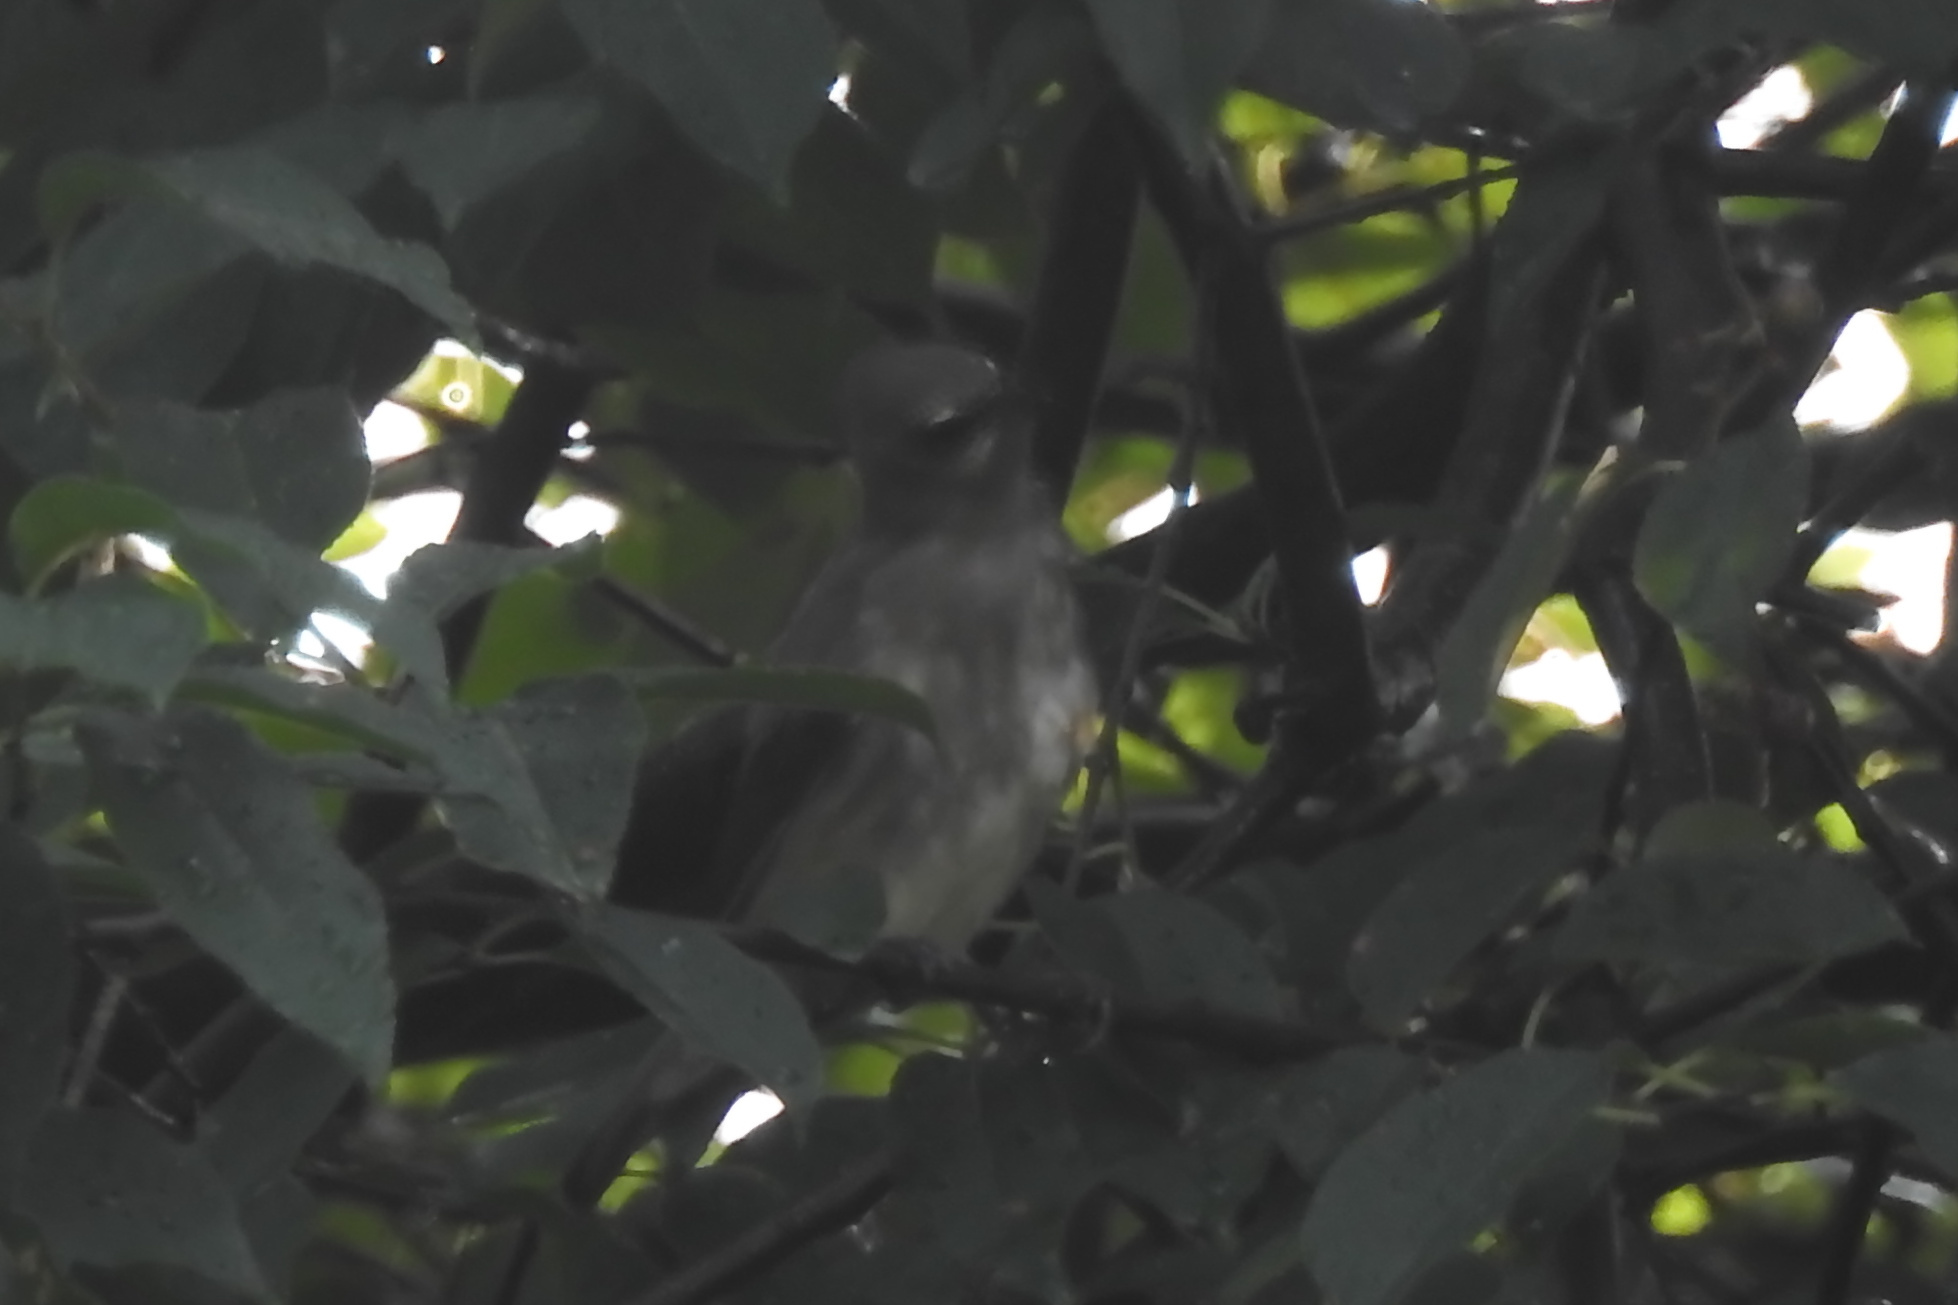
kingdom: Animalia
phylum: Chordata
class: Aves
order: Passeriformes
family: Bombycillidae
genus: Bombycilla
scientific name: Bombycilla cedrorum
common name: Cedar waxwing
